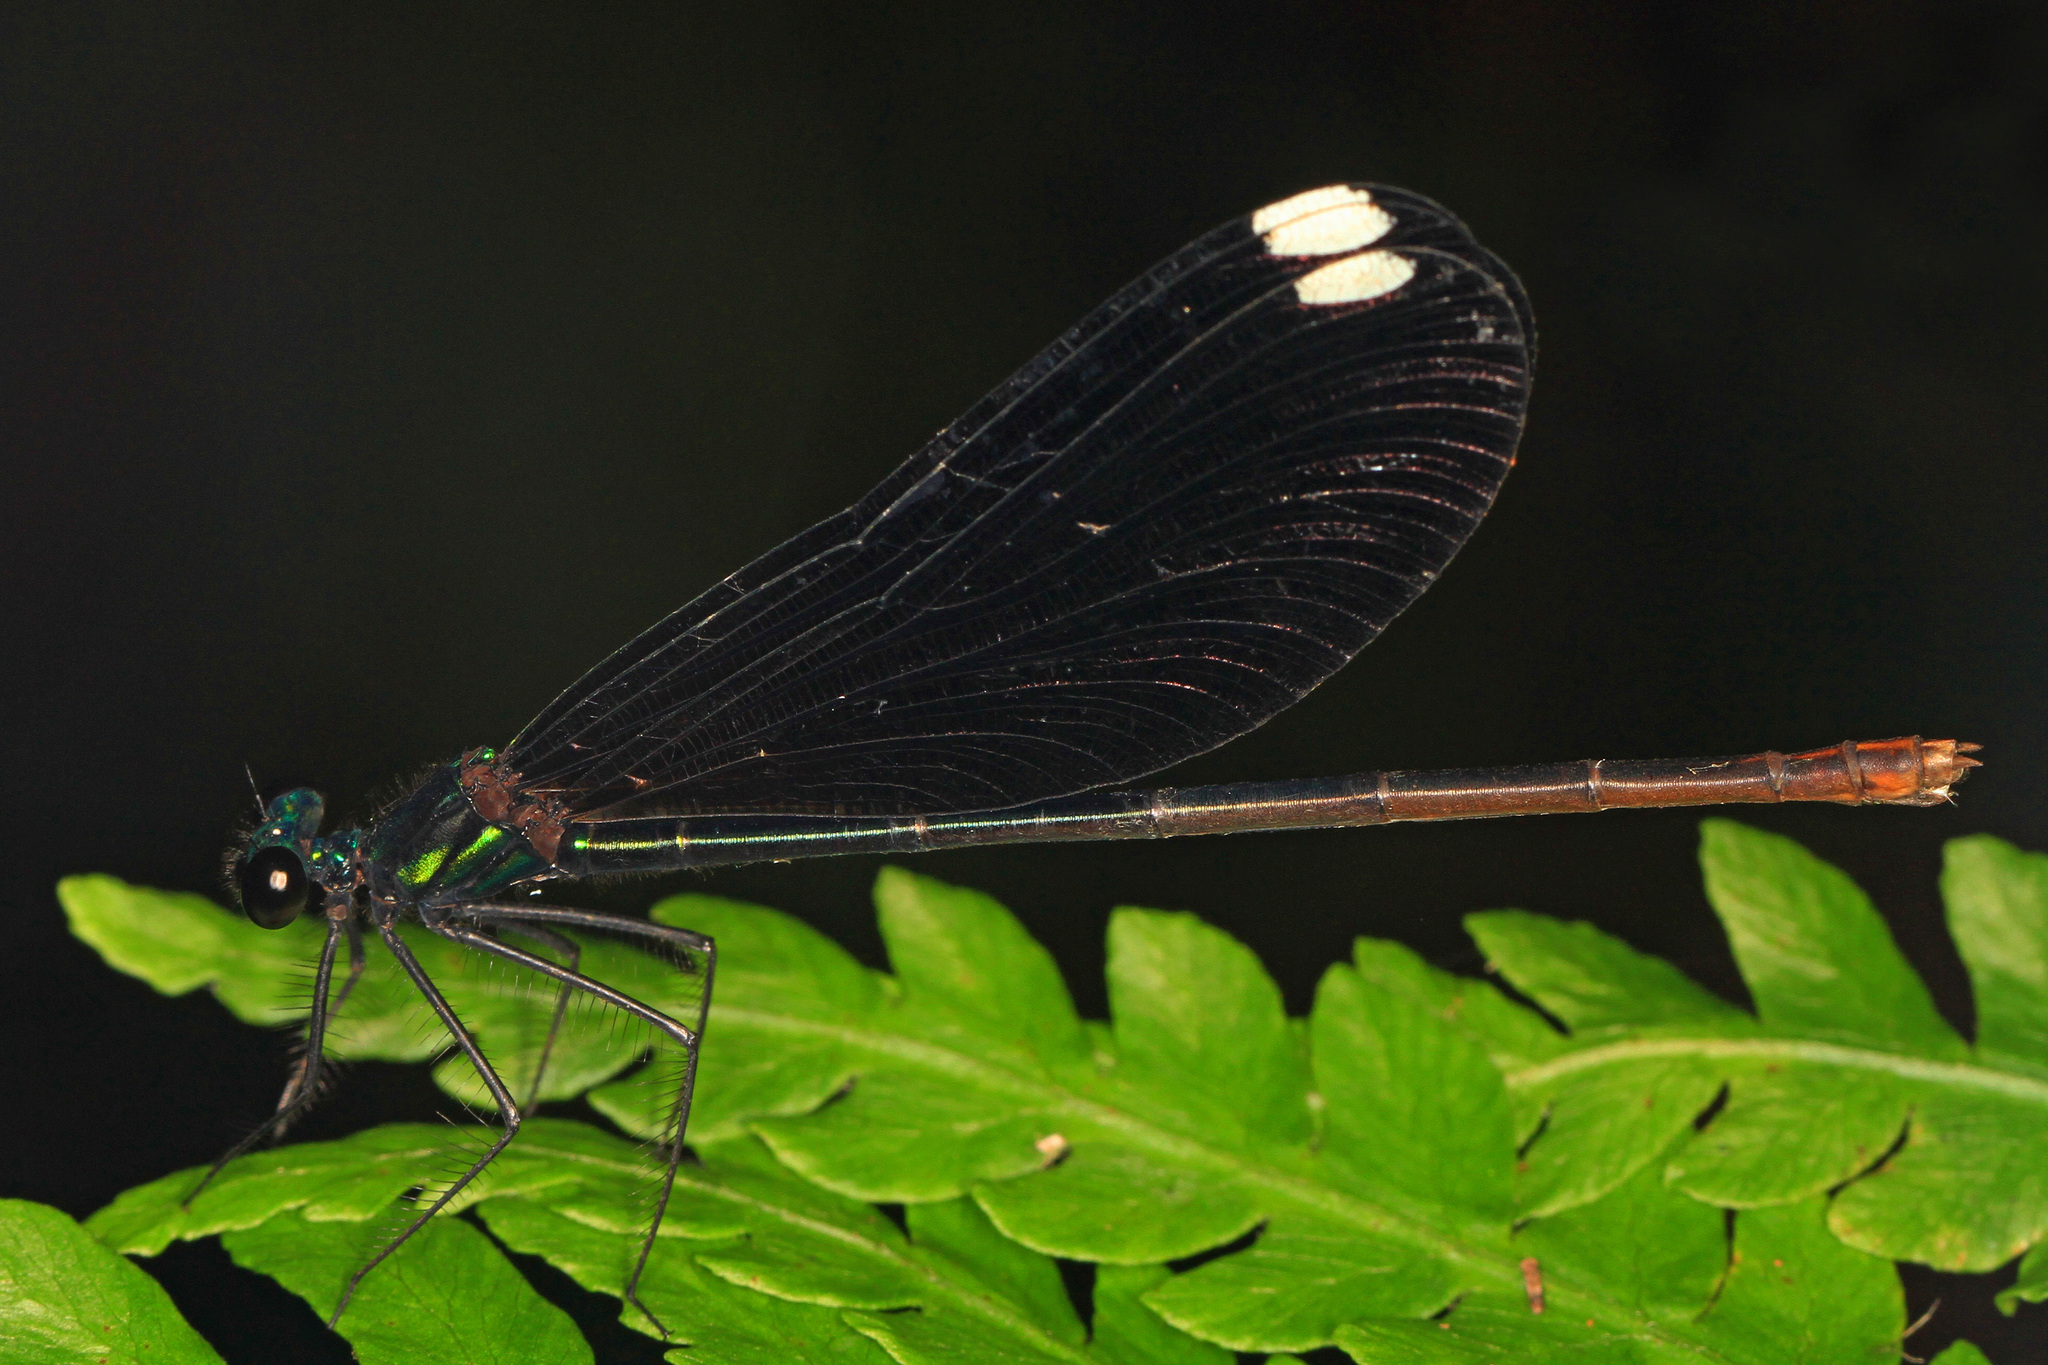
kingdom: Animalia
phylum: Arthropoda
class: Insecta
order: Odonata
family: Calopterygidae
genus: Calopteryx
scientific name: Calopteryx maculata
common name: Ebony jewelwing
